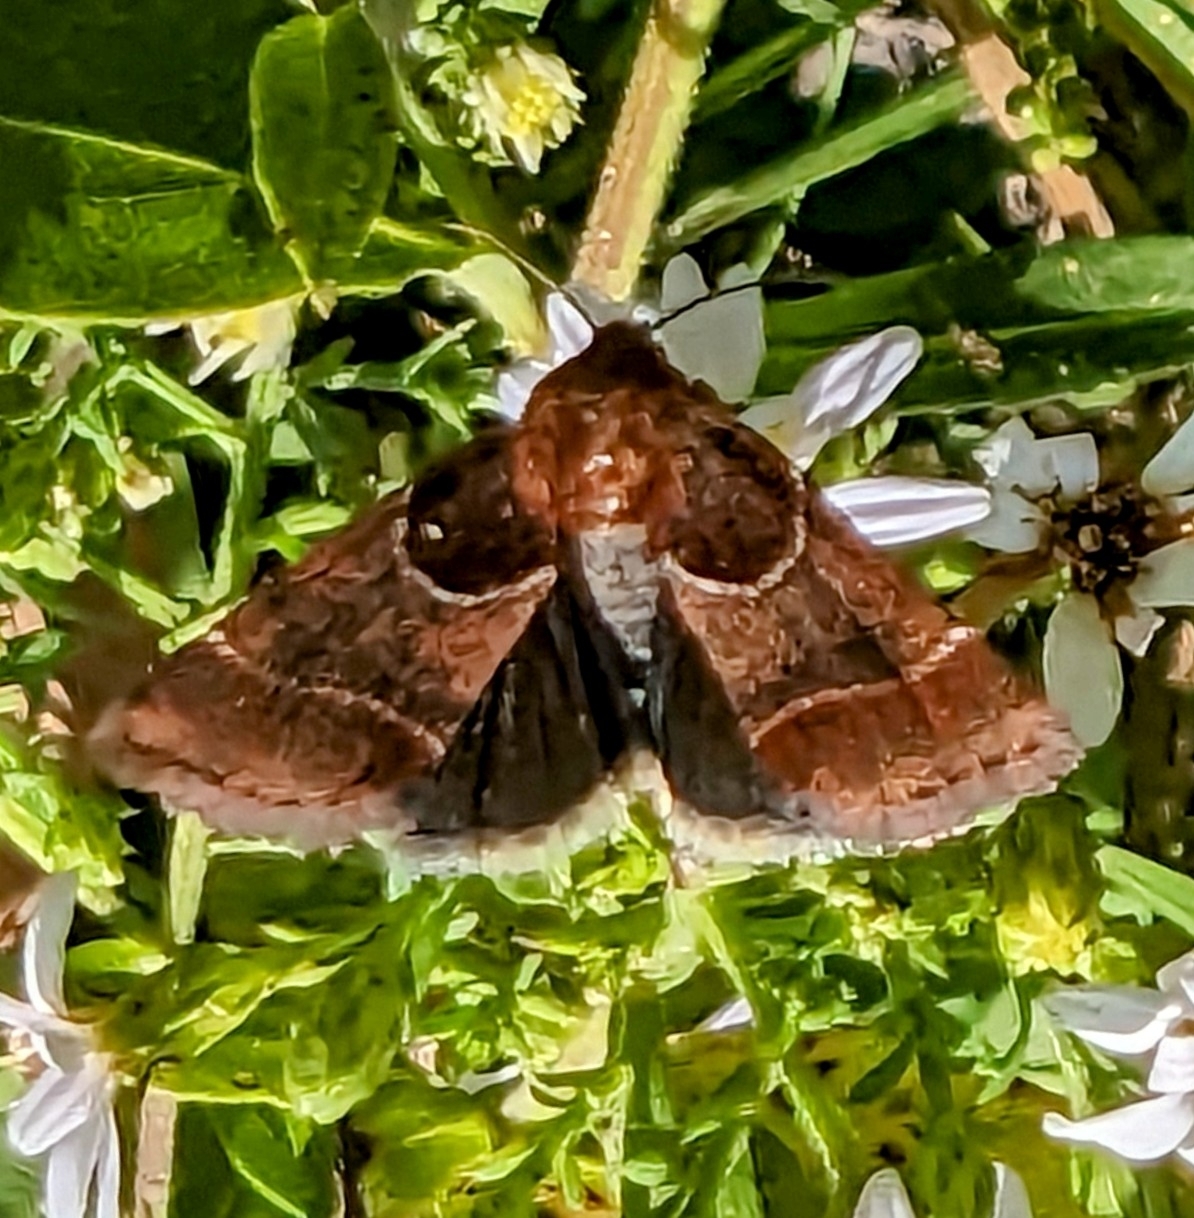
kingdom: Animalia
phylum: Arthropoda
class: Insecta
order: Lepidoptera
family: Noctuidae
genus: Schinia
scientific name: Schinia arcigera
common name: Arcigera flower moth
